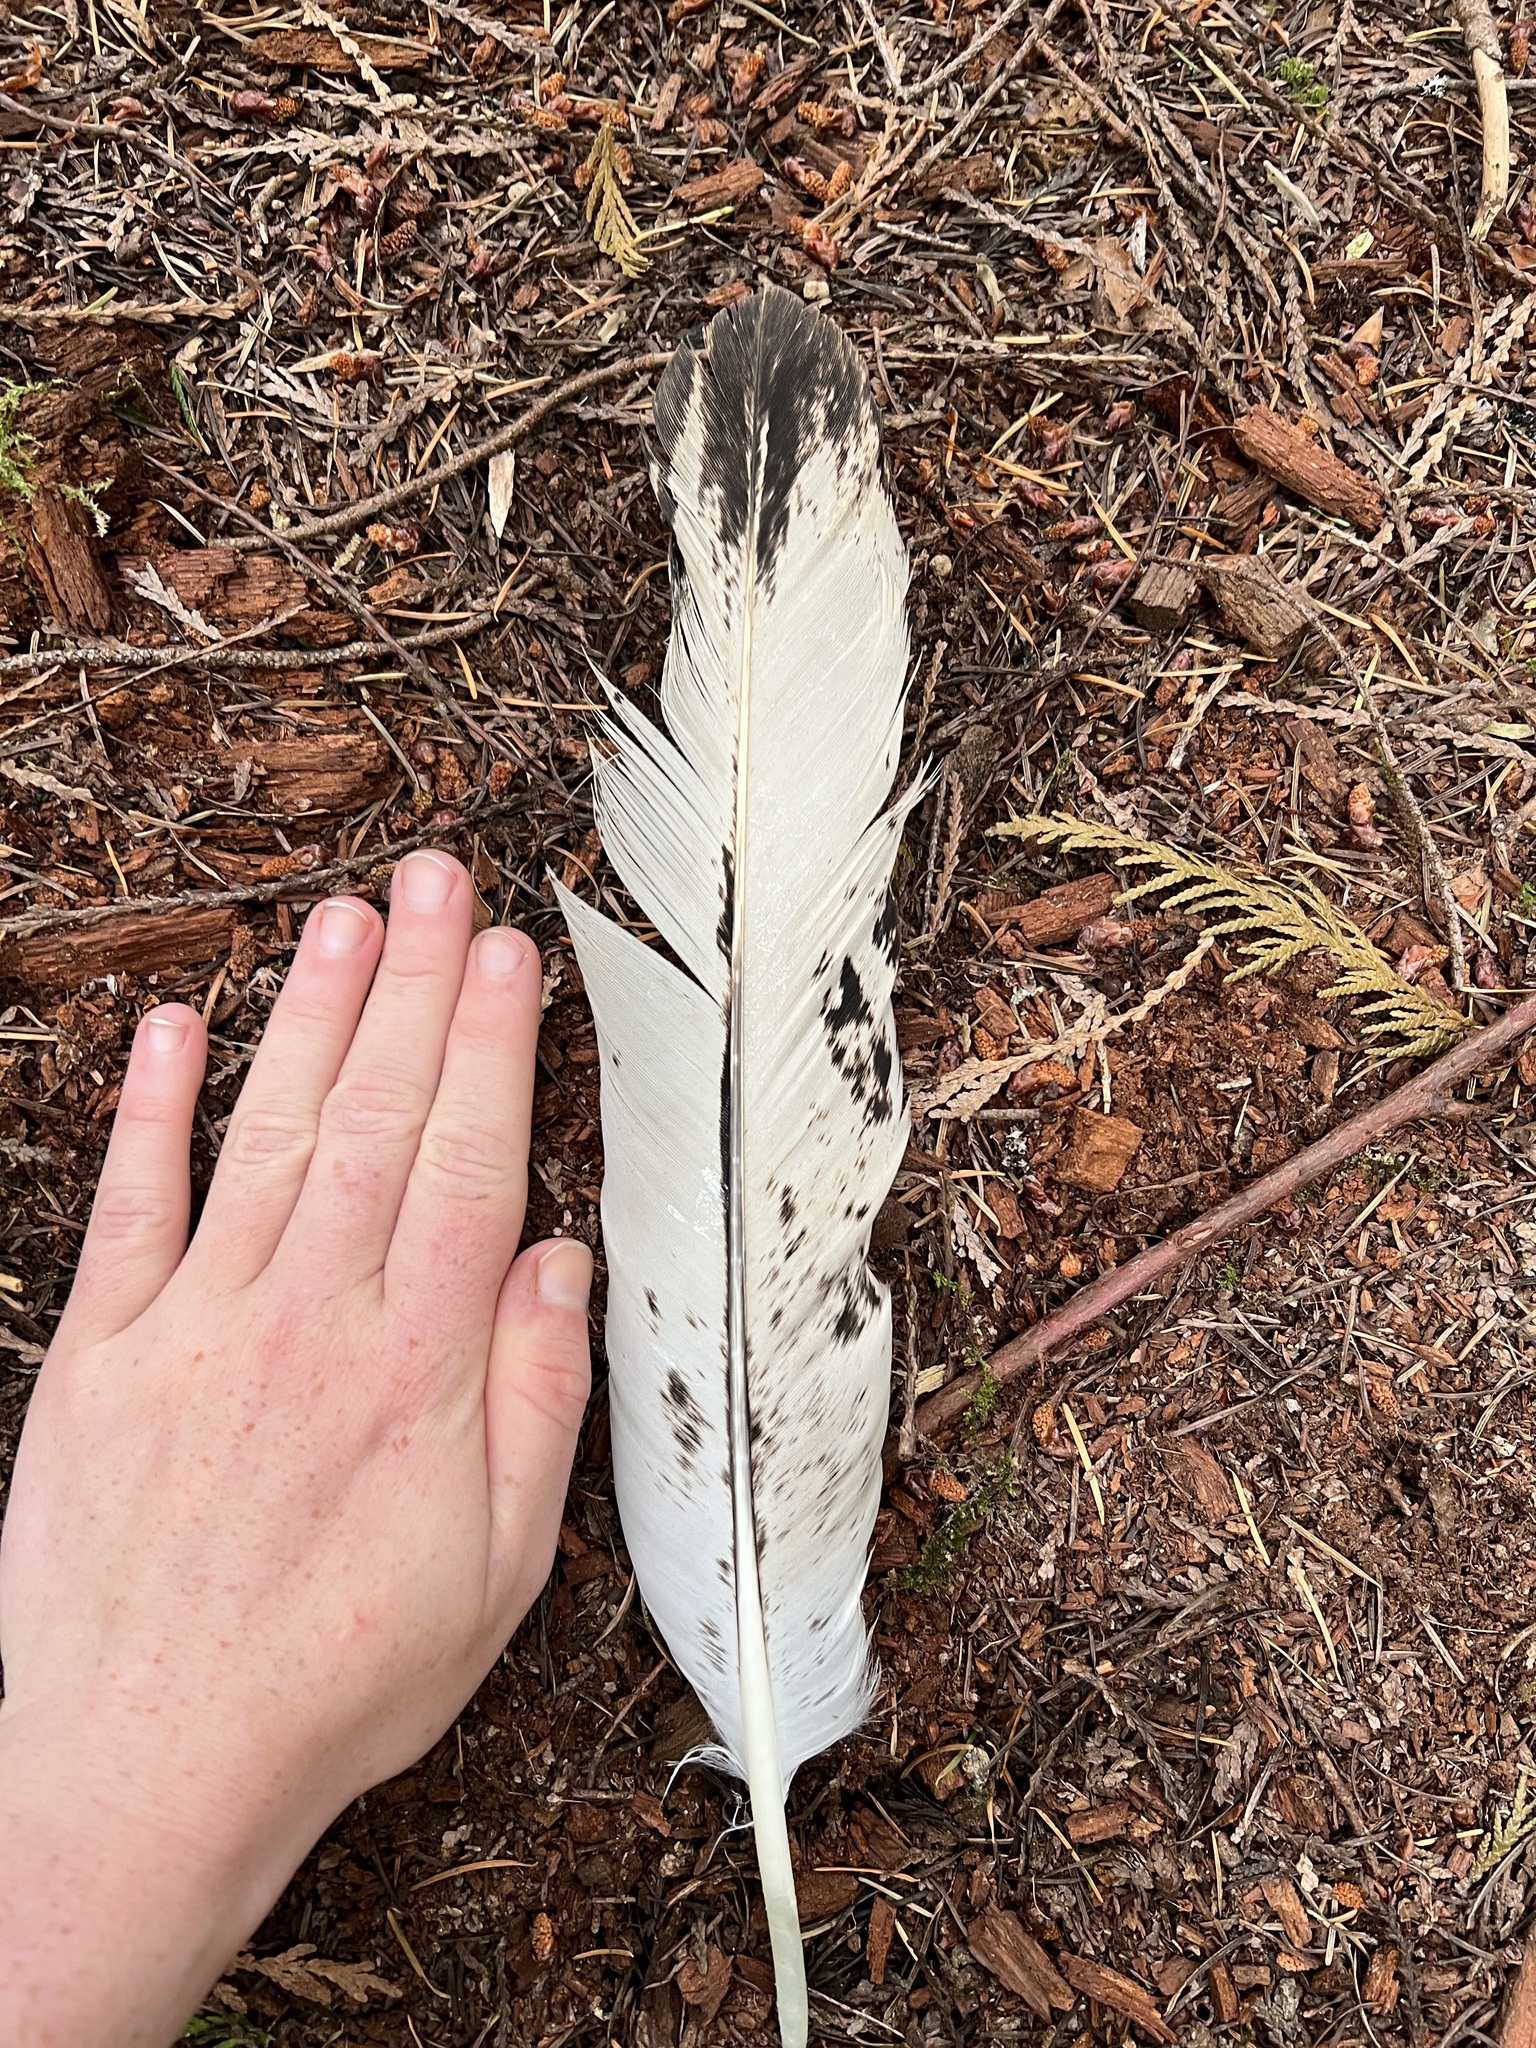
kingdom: Animalia
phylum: Chordata
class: Aves
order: Accipitriformes
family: Accipitridae
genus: Haliaeetus
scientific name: Haliaeetus leucocephalus
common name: Bald eagle
